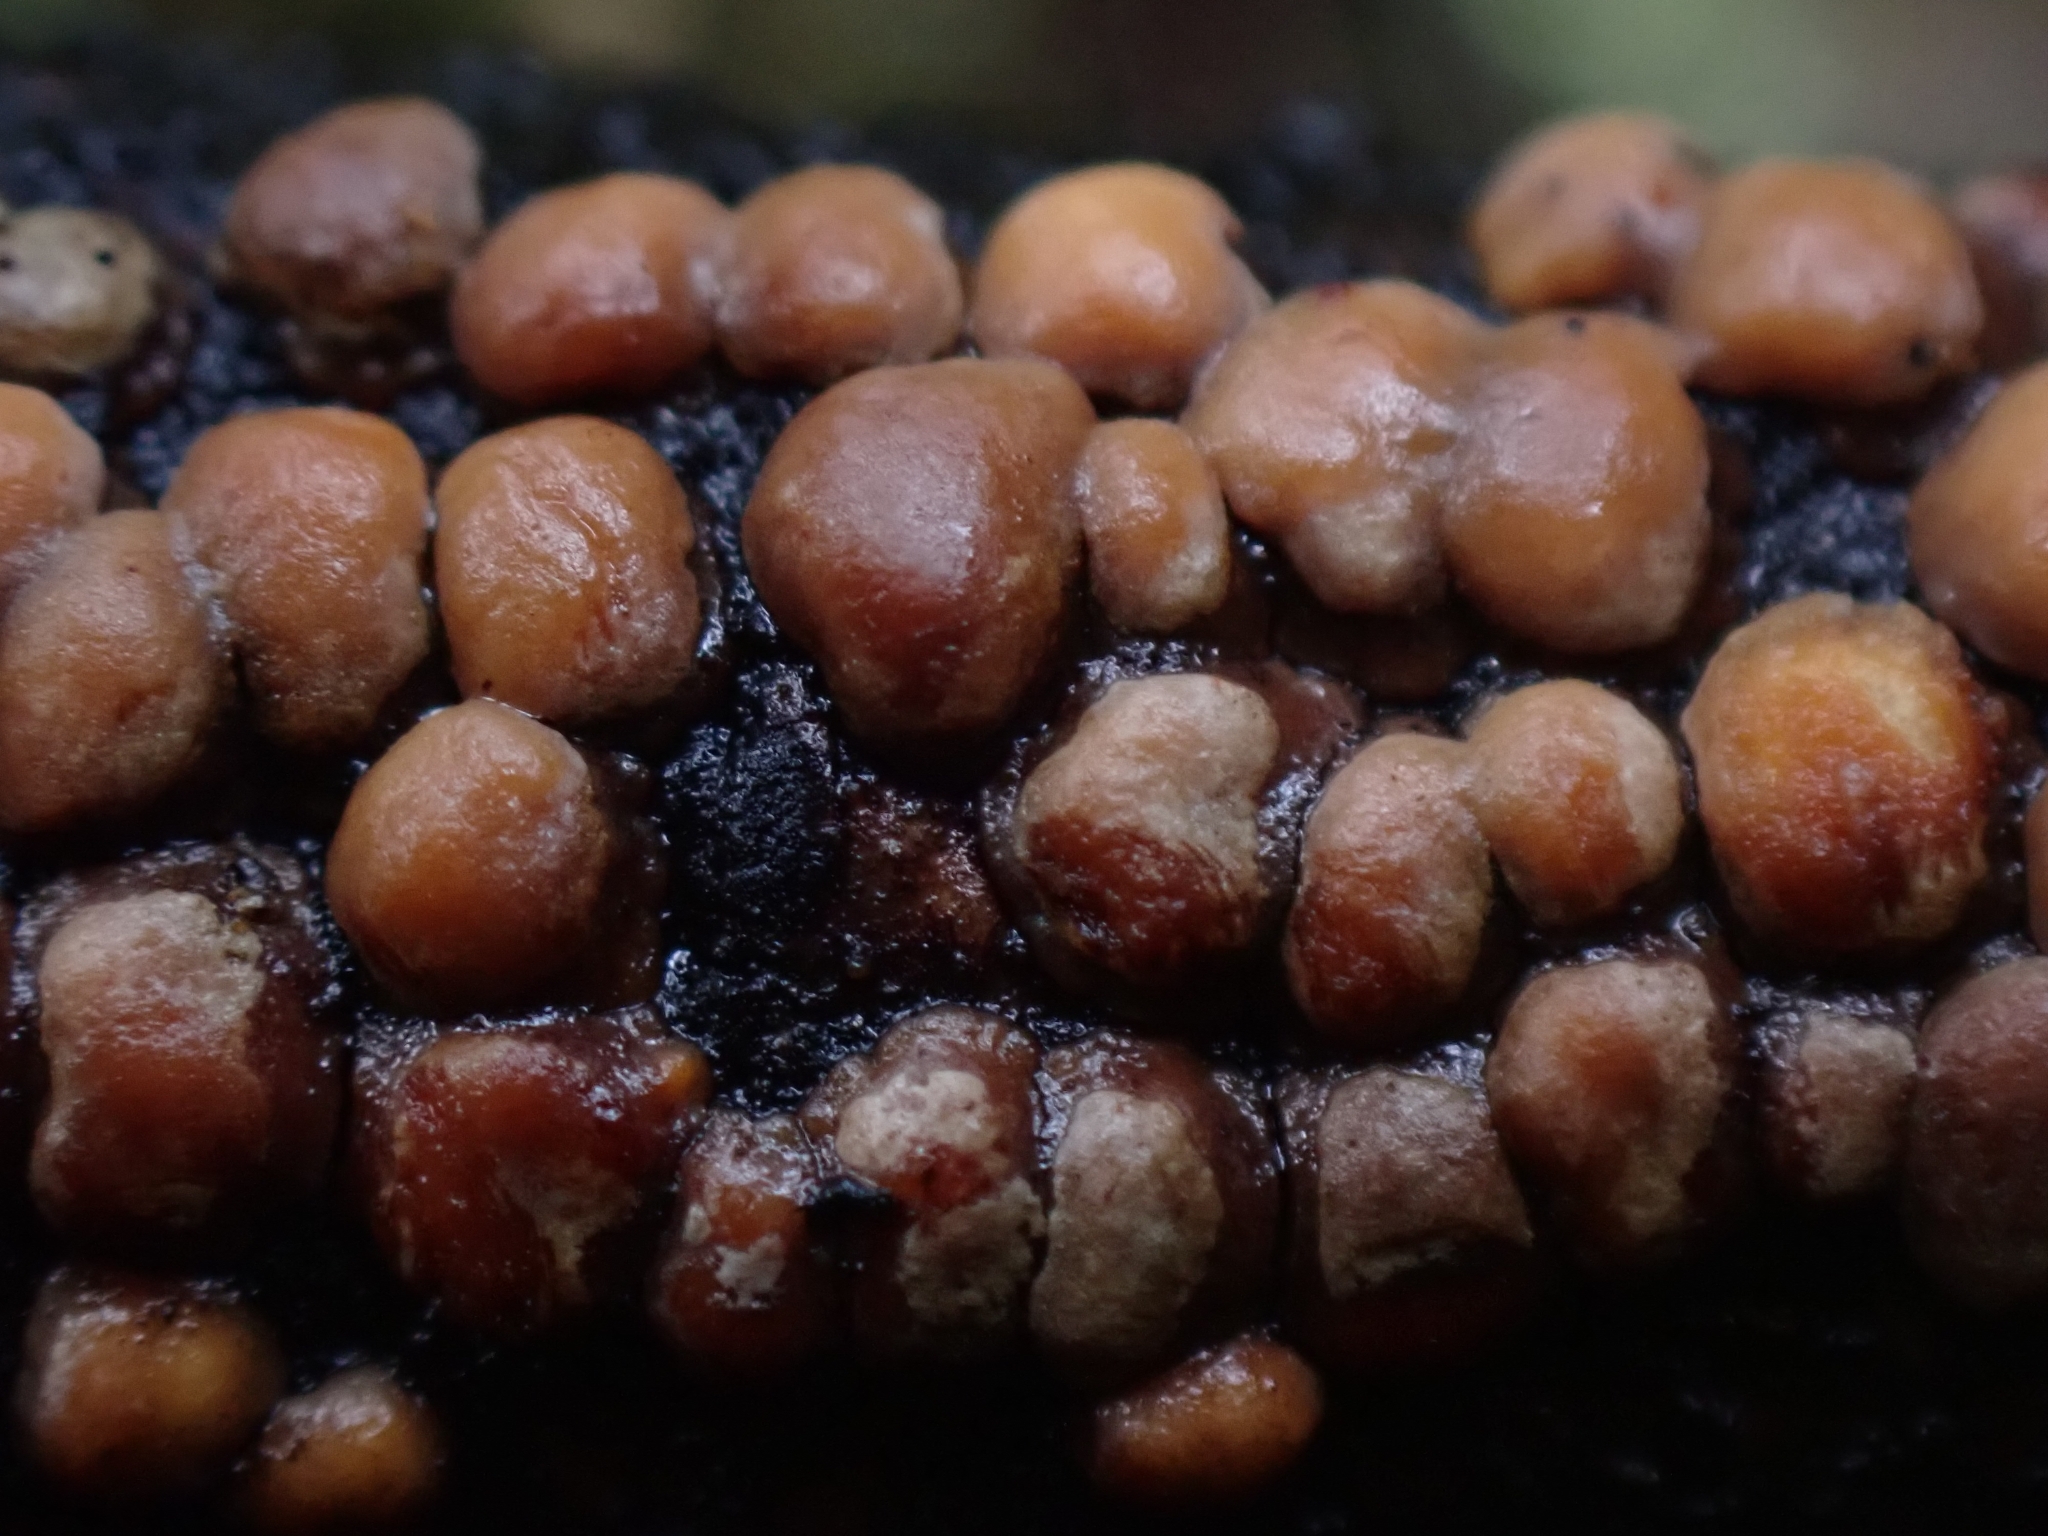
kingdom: Fungi
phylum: Basidiomycota
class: Agaricomycetes
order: Russulales
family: Stereaceae
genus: Aleurodiscus
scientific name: Aleurodiscus berggrenii
